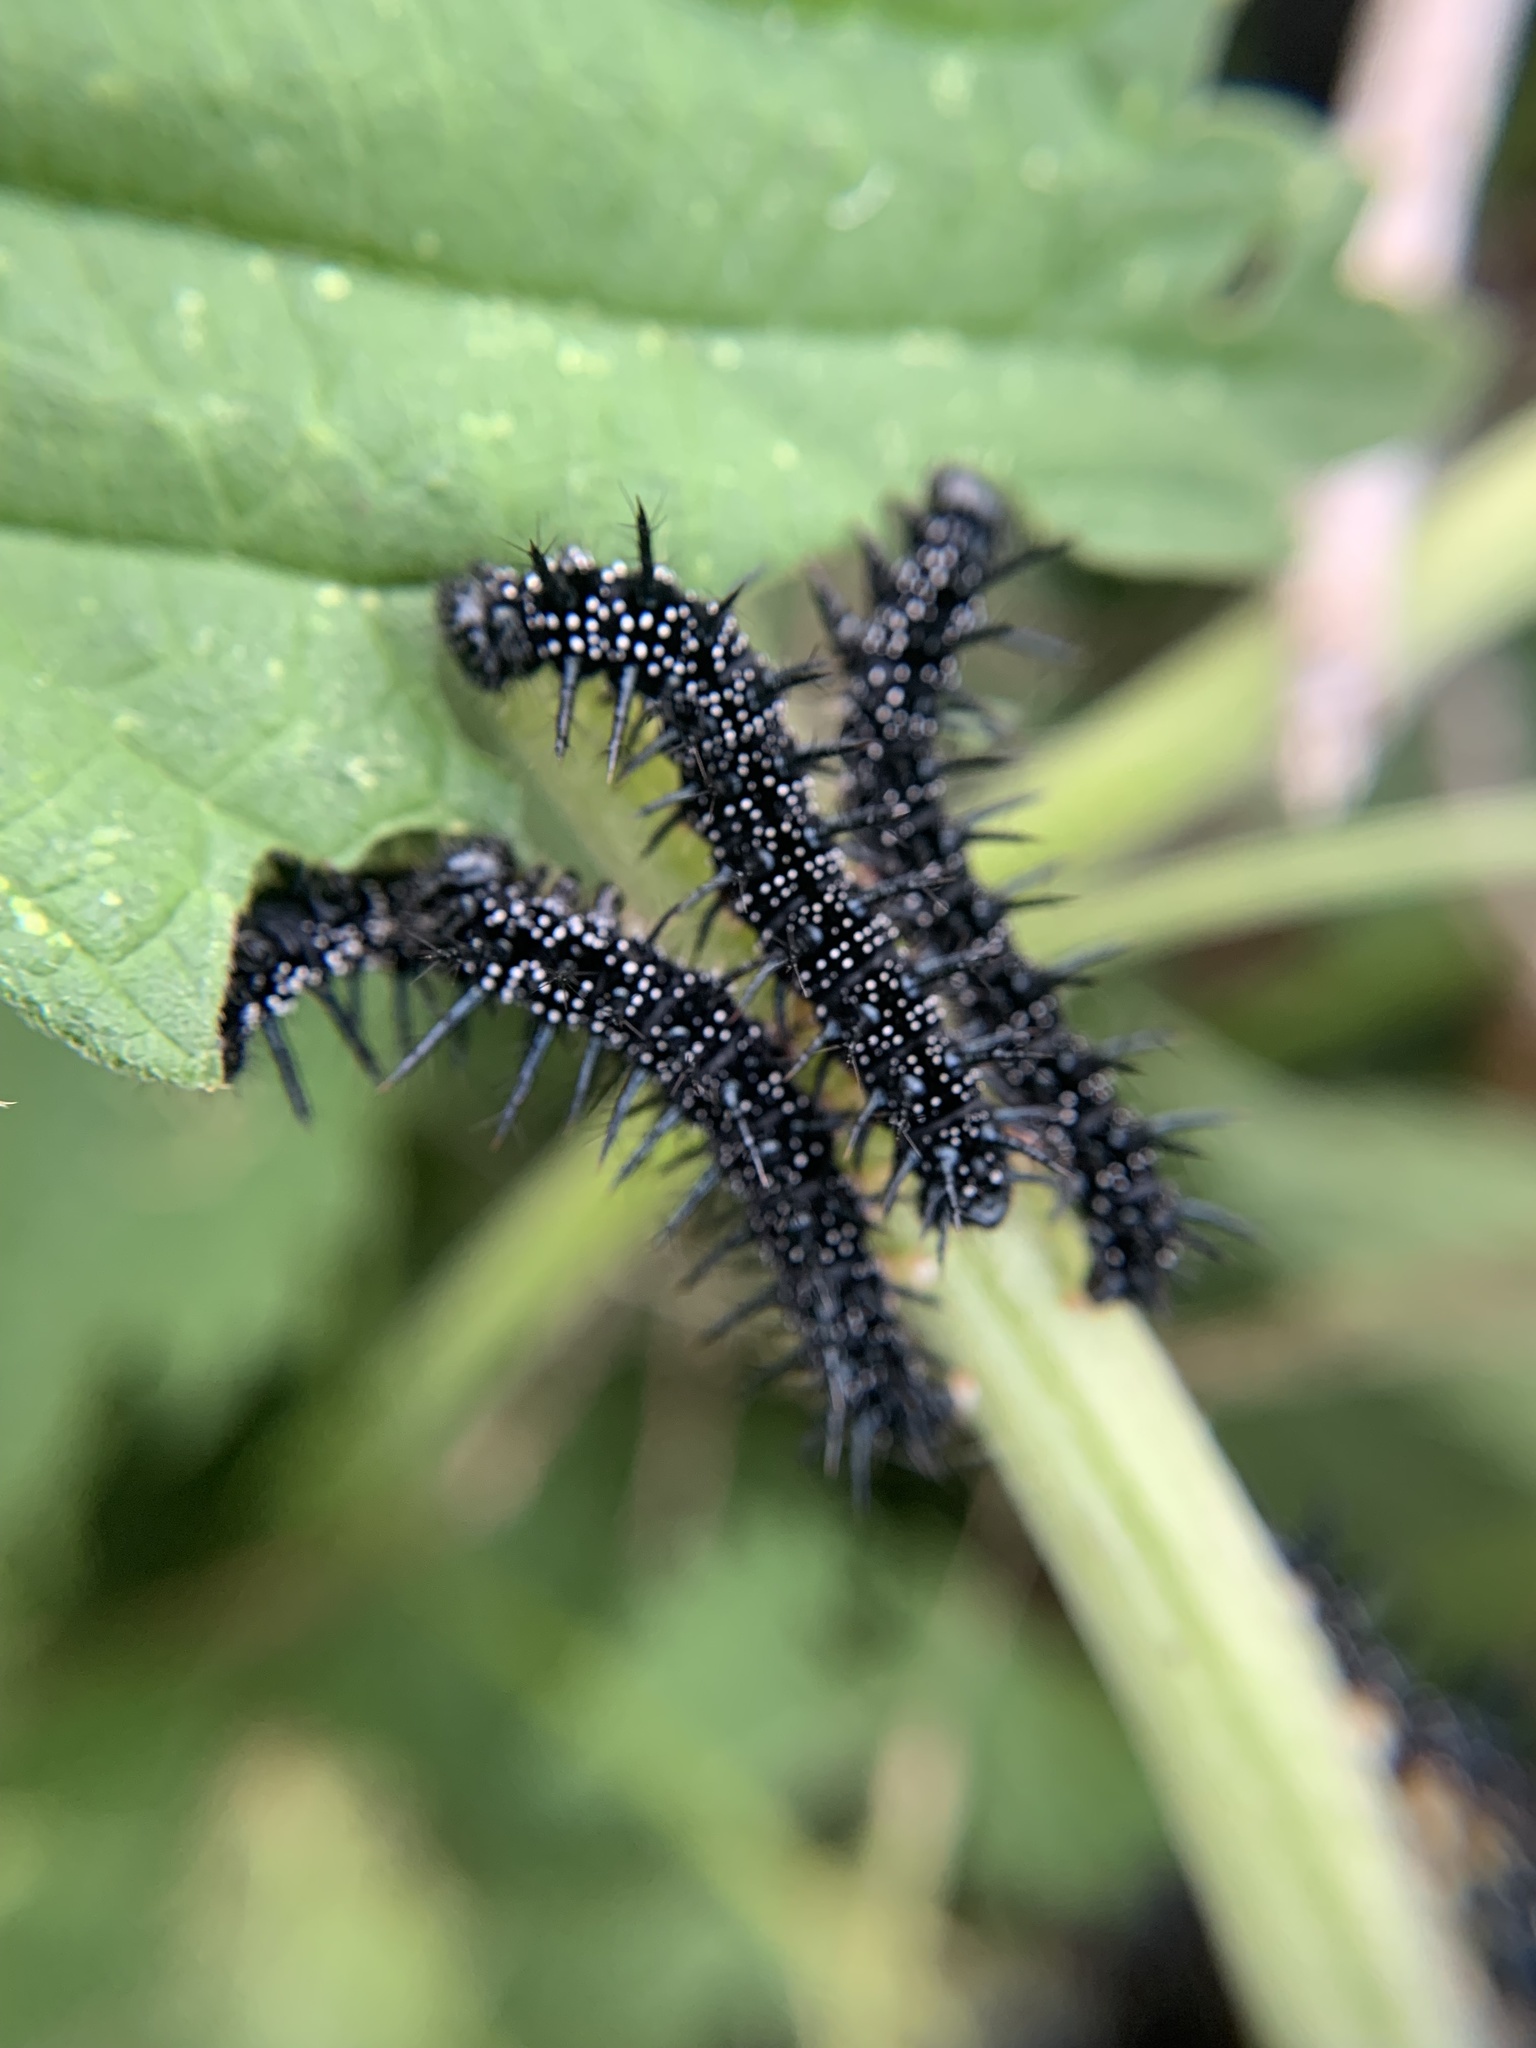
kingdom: Animalia
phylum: Arthropoda
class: Insecta
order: Lepidoptera
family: Nymphalidae
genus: Aglais
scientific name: Aglais io
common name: Peacock
